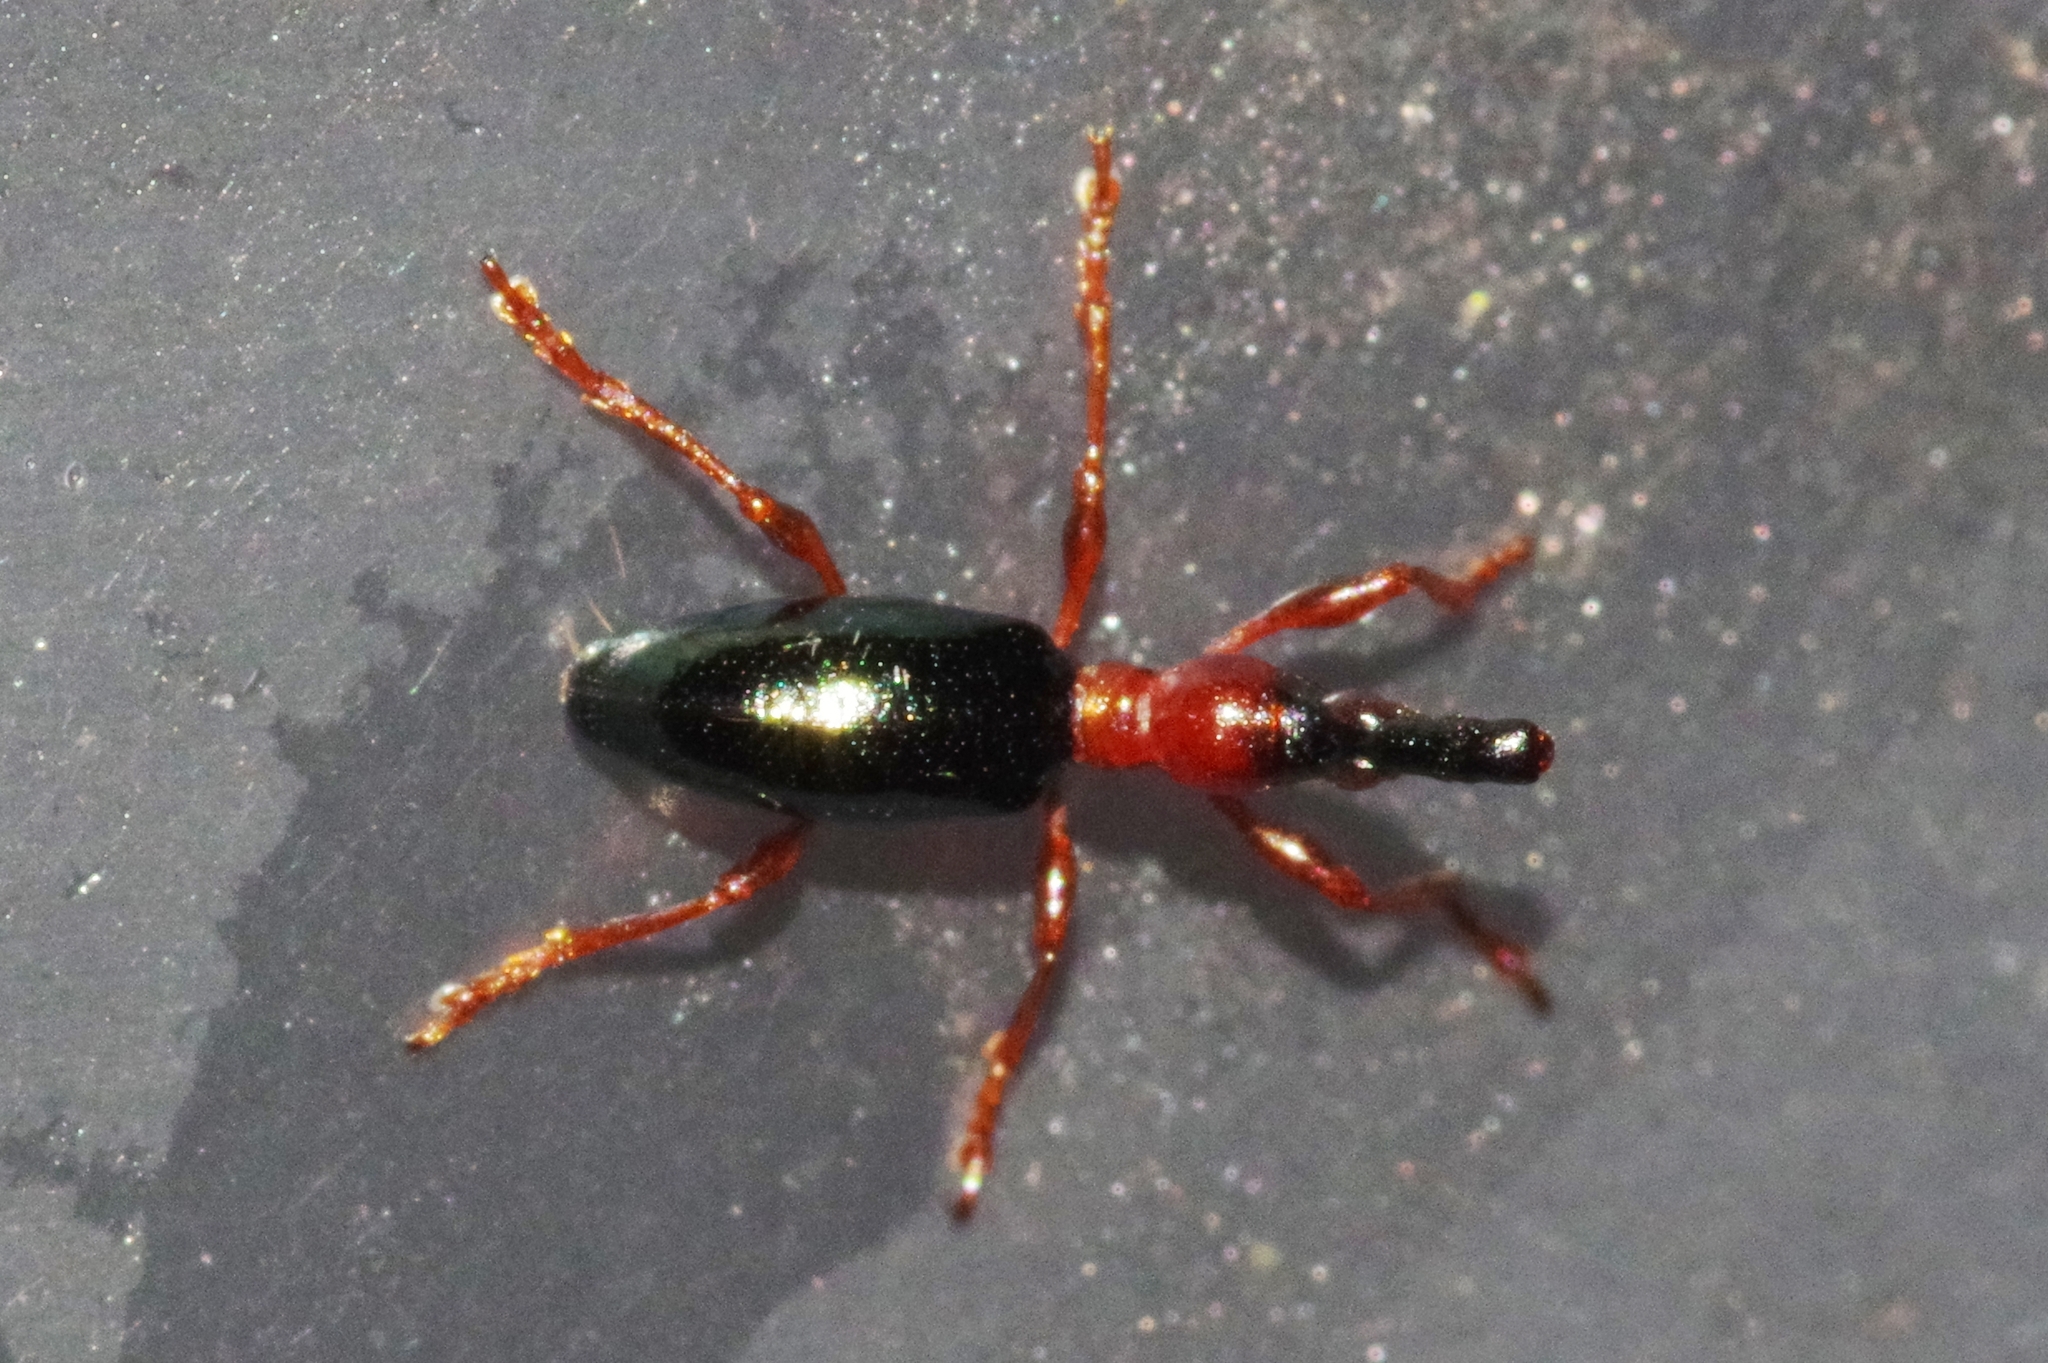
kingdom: Animalia
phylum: Arthropoda
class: Insecta
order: Coleoptera
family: Brentidae
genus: Cylas
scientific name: Cylas formicarius
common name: Sweetpotato weevil
